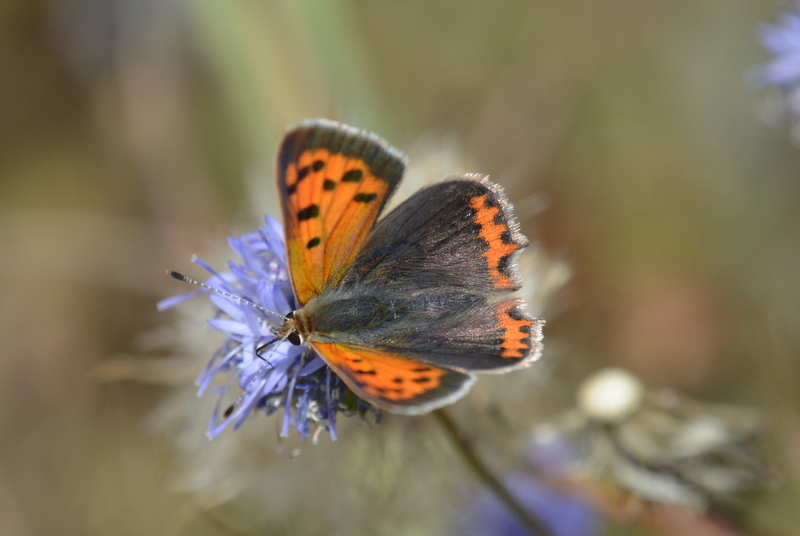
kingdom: Animalia
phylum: Arthropoda
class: Insecta
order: Lepidoptera
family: Lycaenidae
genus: Lycaena
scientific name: Lycaena phlaeas
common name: Small copper
